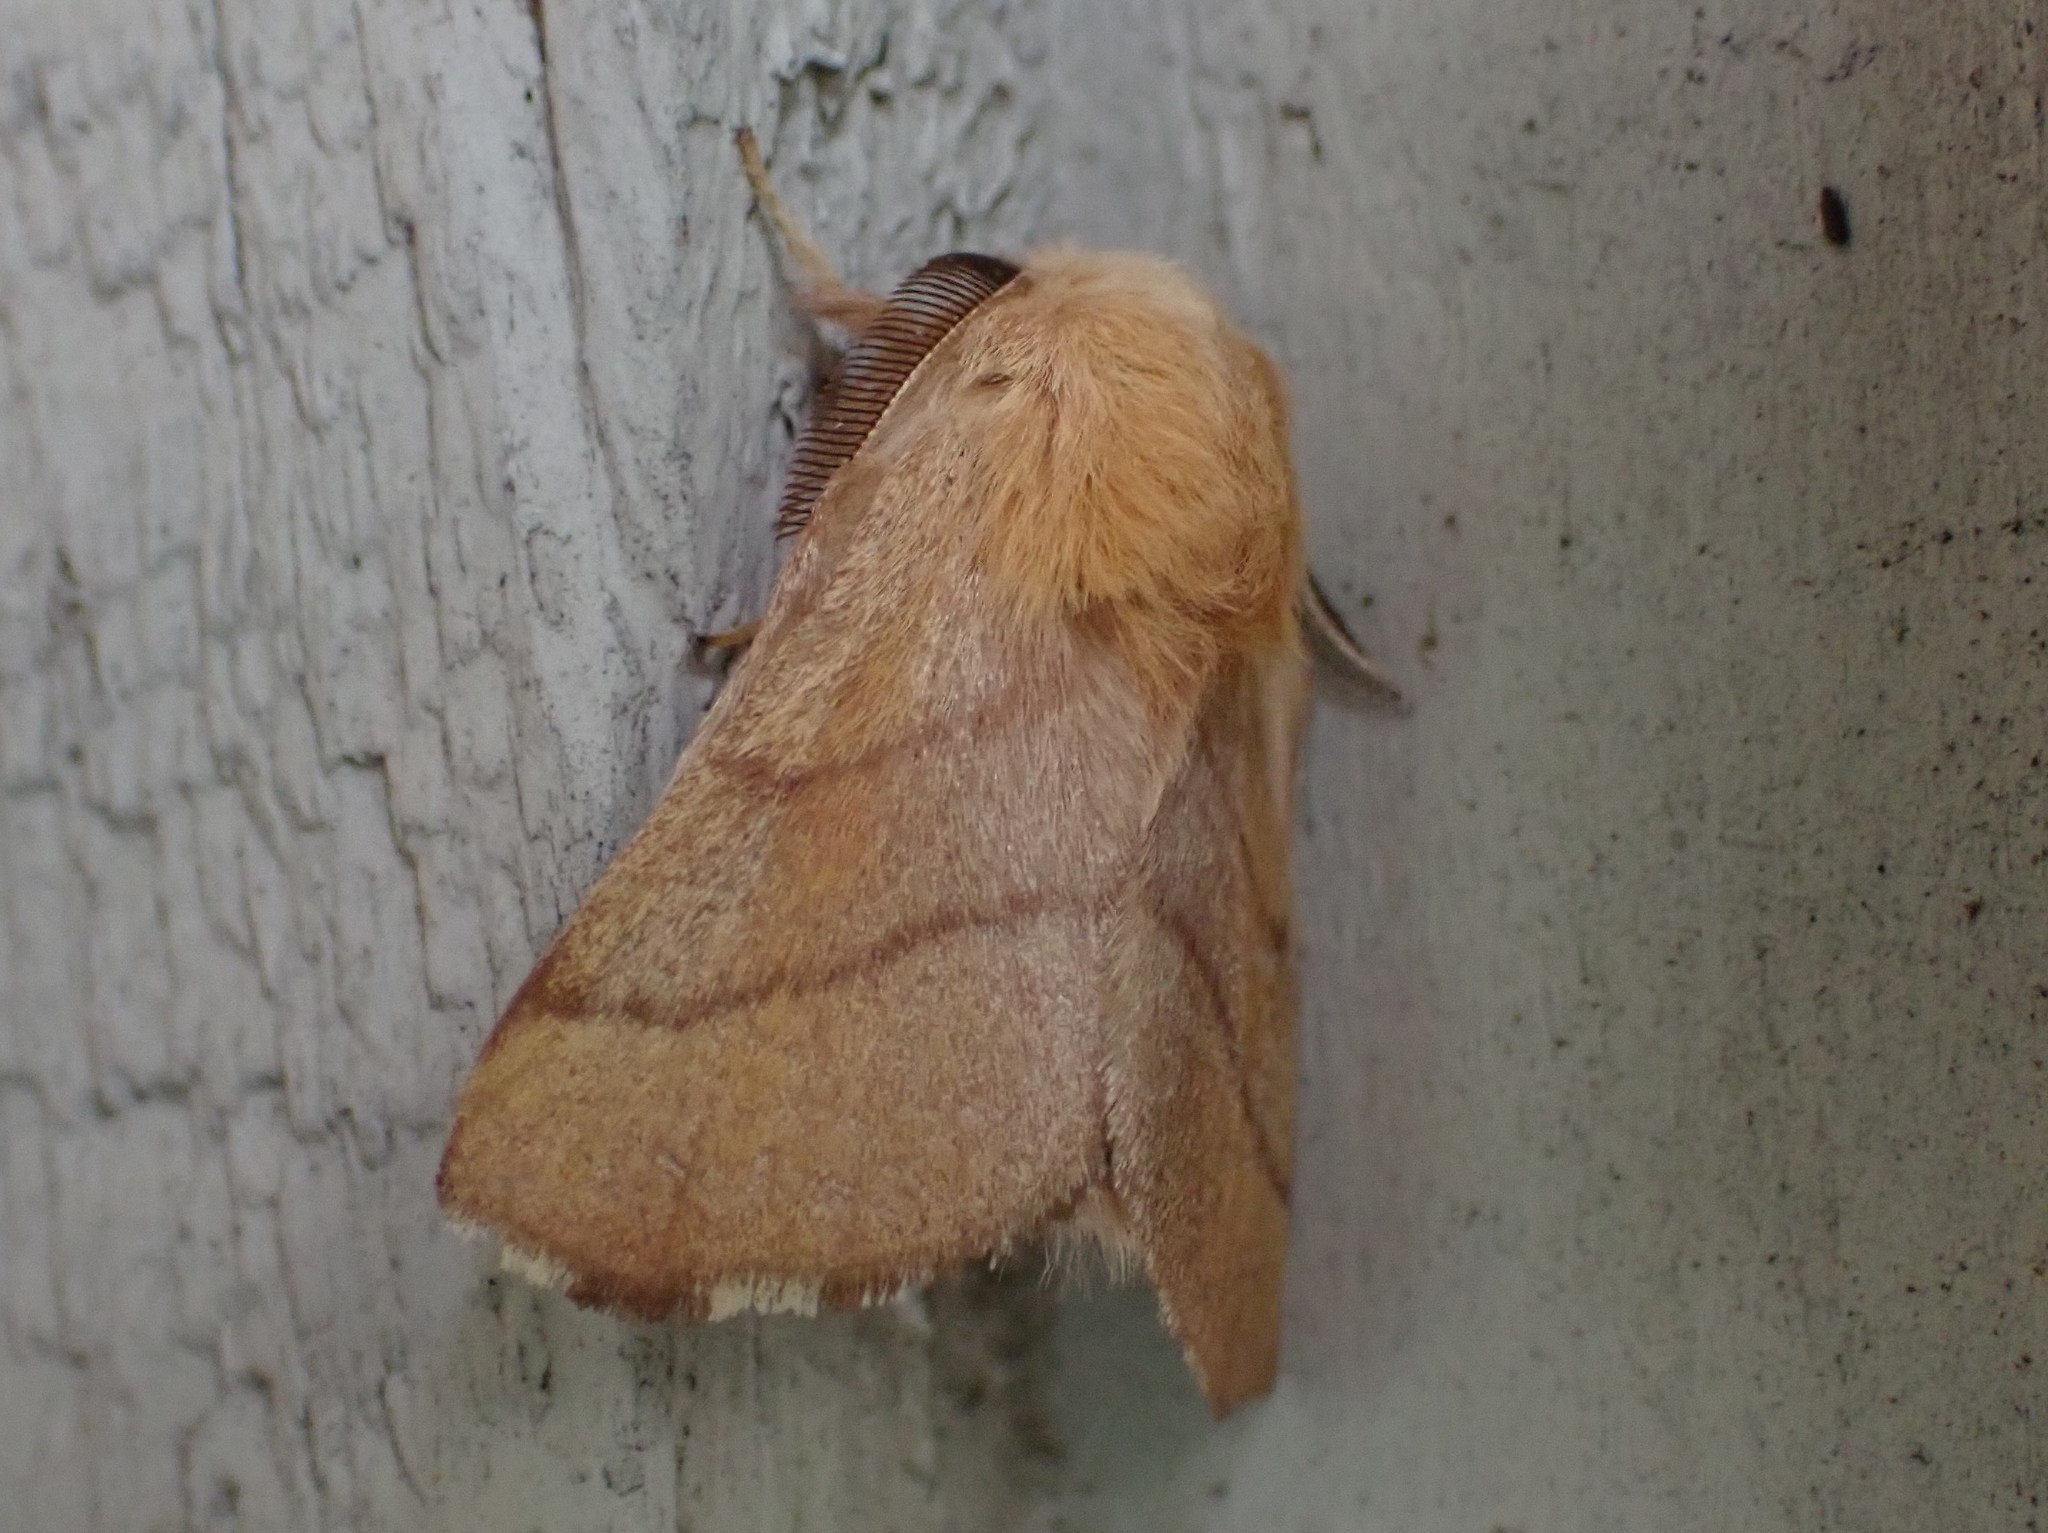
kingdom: Animalia
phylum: Arthropoda
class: Insecta
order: Lepidoptera
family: Lasiocampidae
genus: Malacosoma
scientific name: Malacosoma disstria
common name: Forest tent caterpillar
